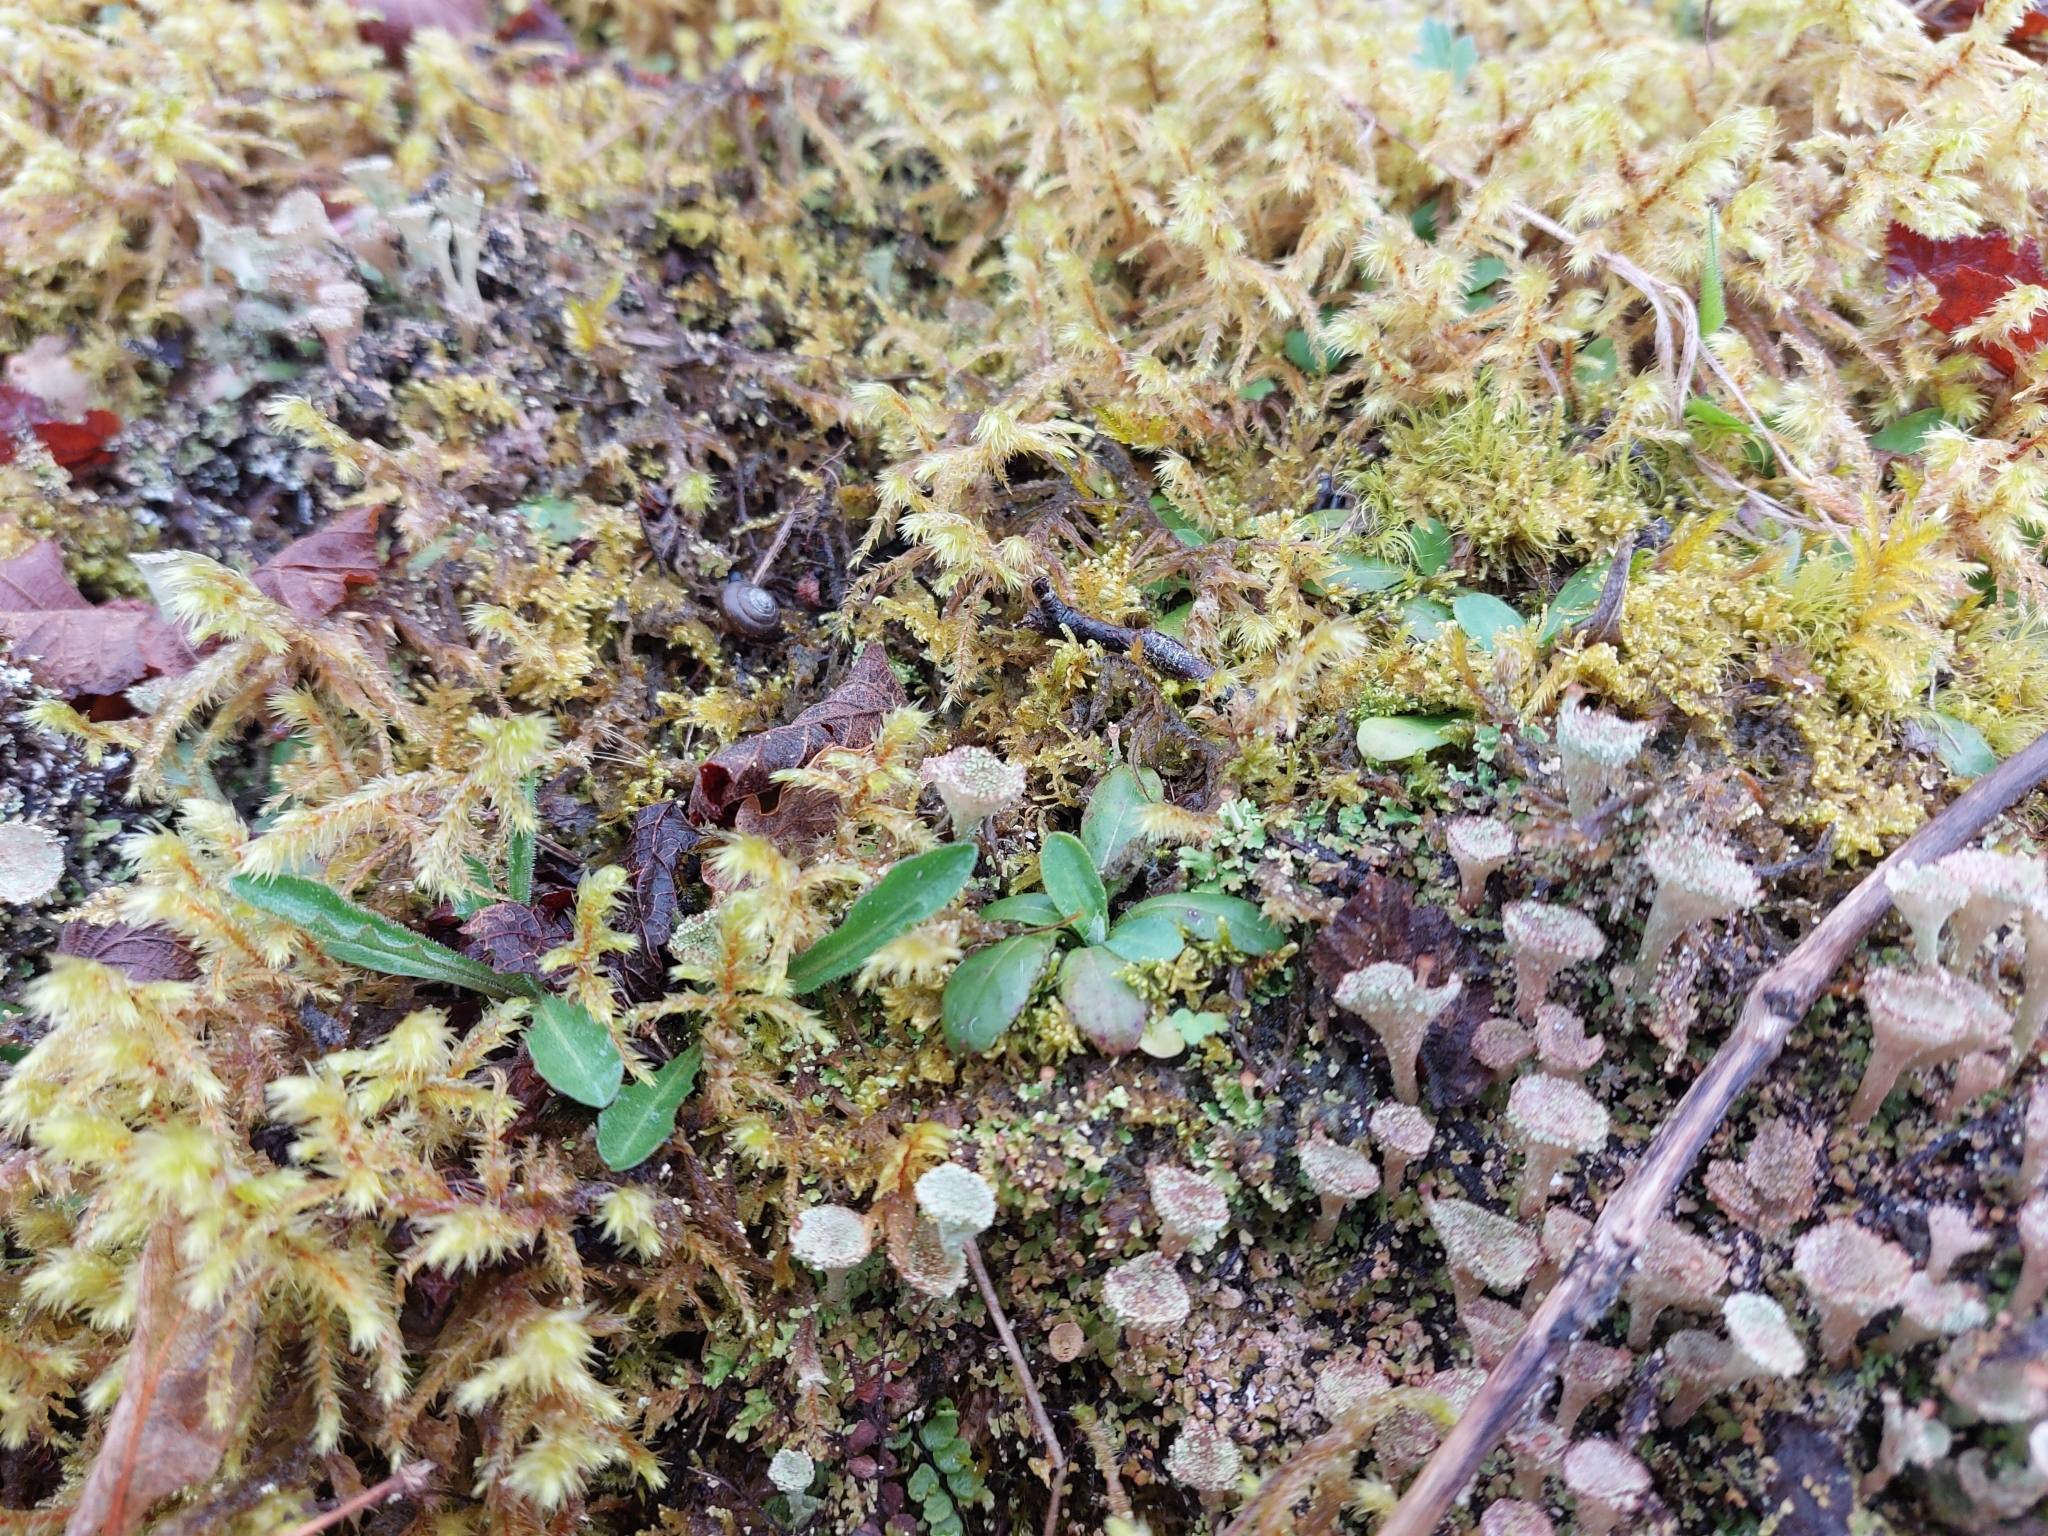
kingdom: Fungi
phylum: Ascomycota
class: Lecanoromycetes
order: Lecanorales
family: Cladoniaceae
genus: Cladonia
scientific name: Cladonia pyxidata
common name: Pebbled pixie cup
